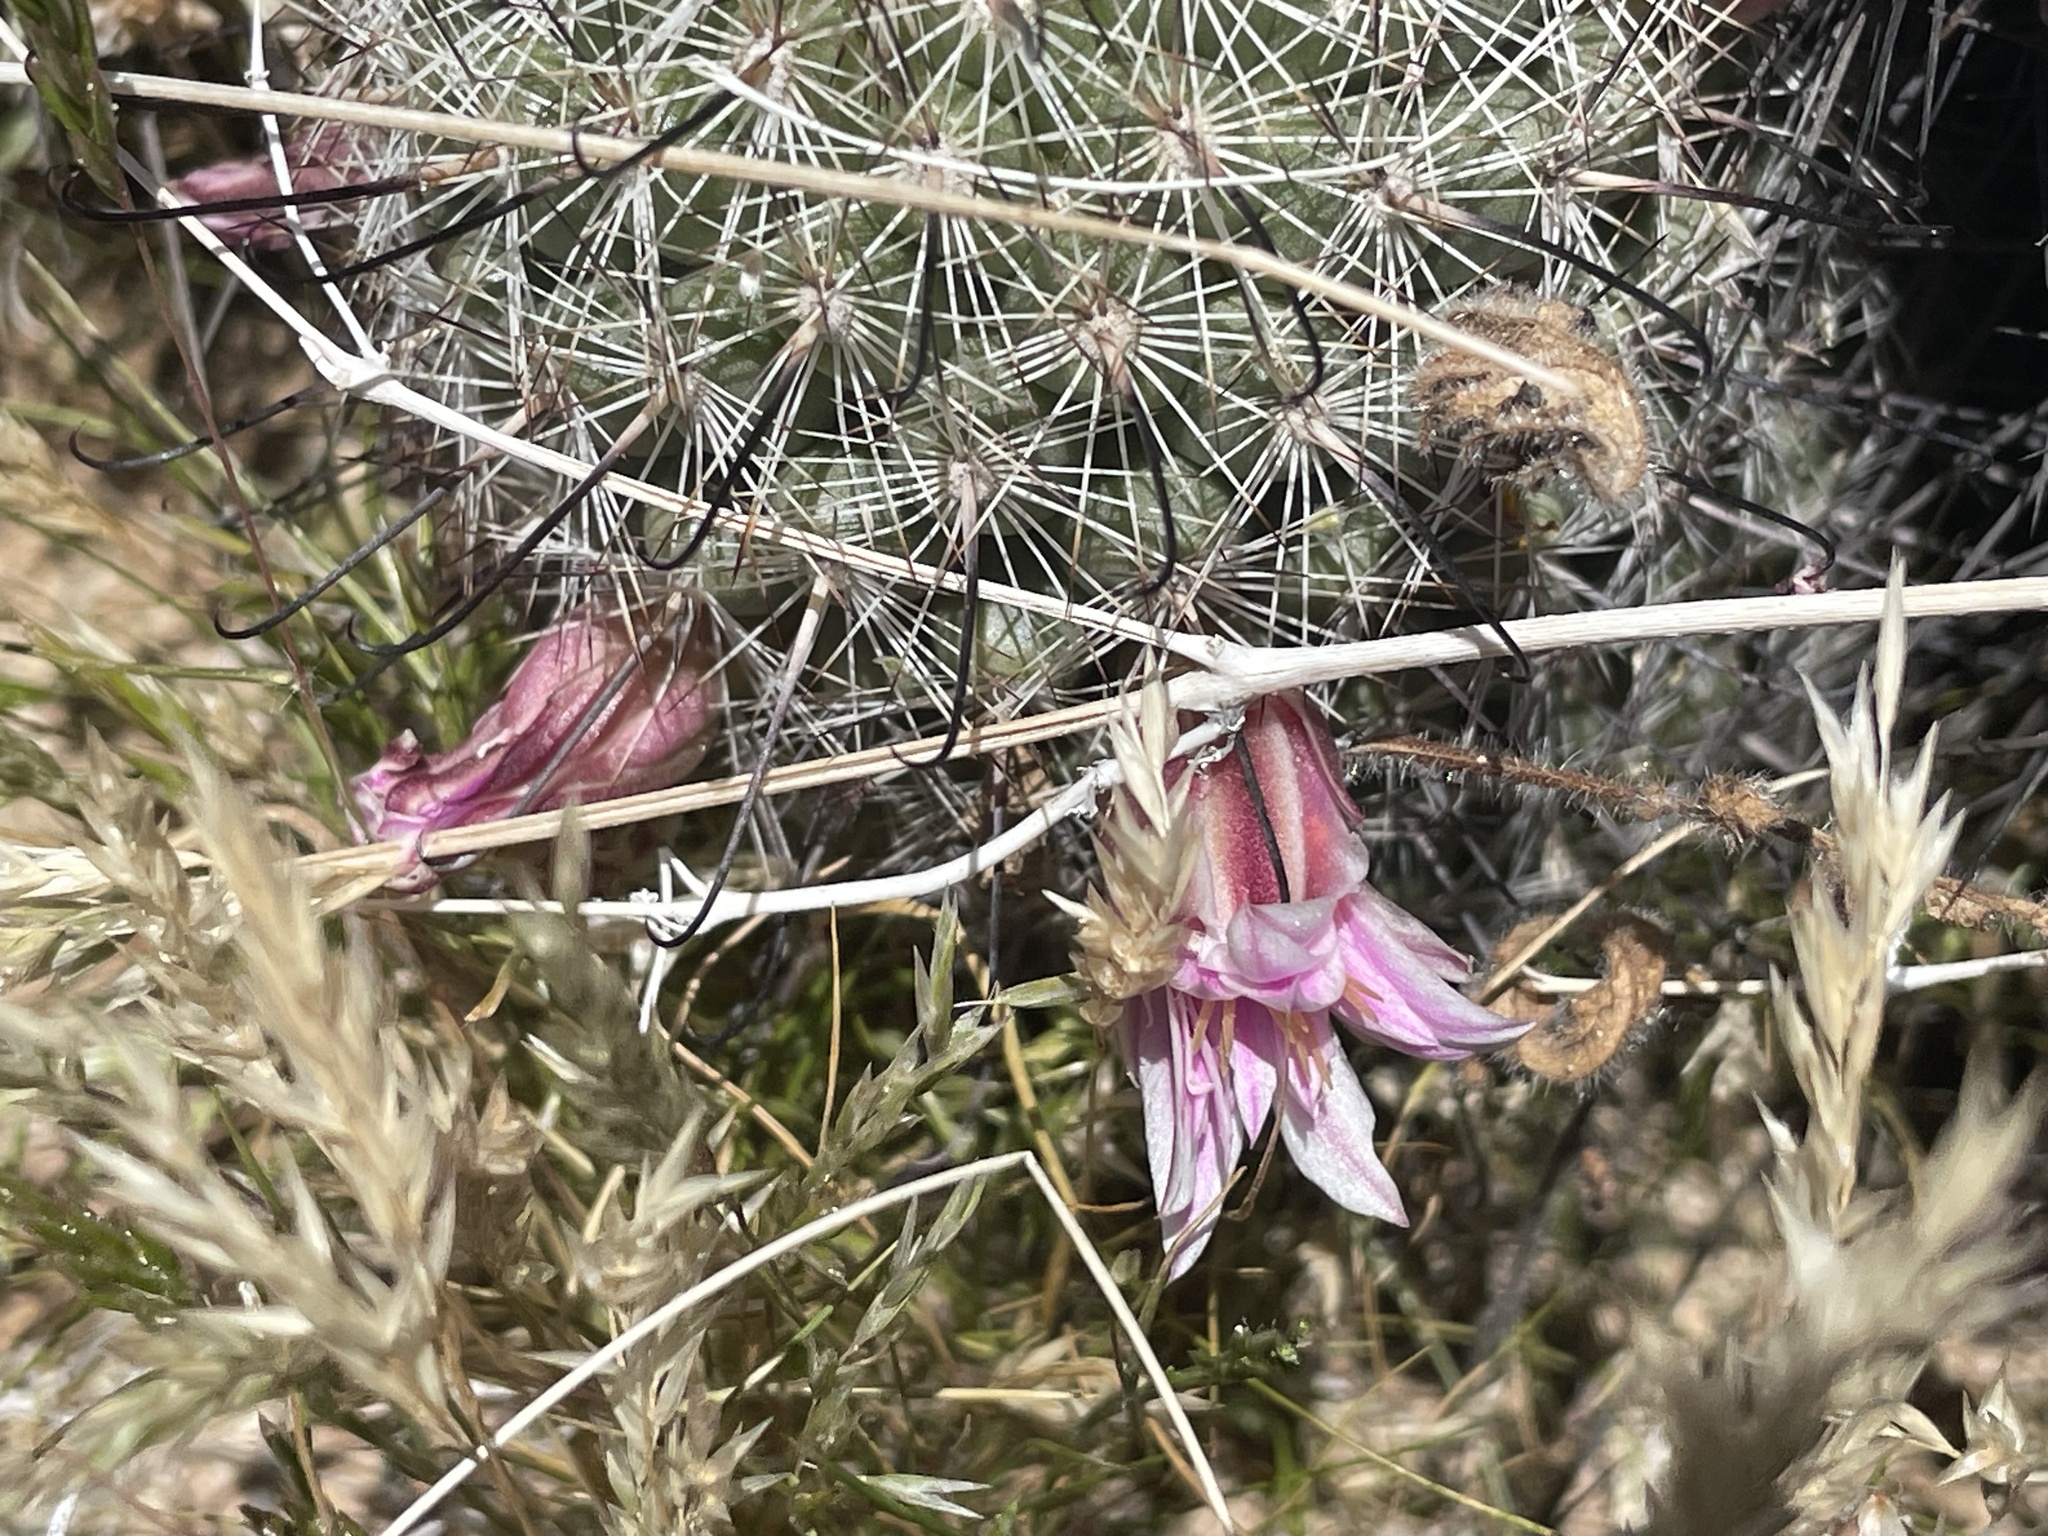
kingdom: Plantae
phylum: Tracheophyta
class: Magnoliopsida
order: Caryophyllales
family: Cactaceae
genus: Cochemiea
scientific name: Cochemiea grahamii
